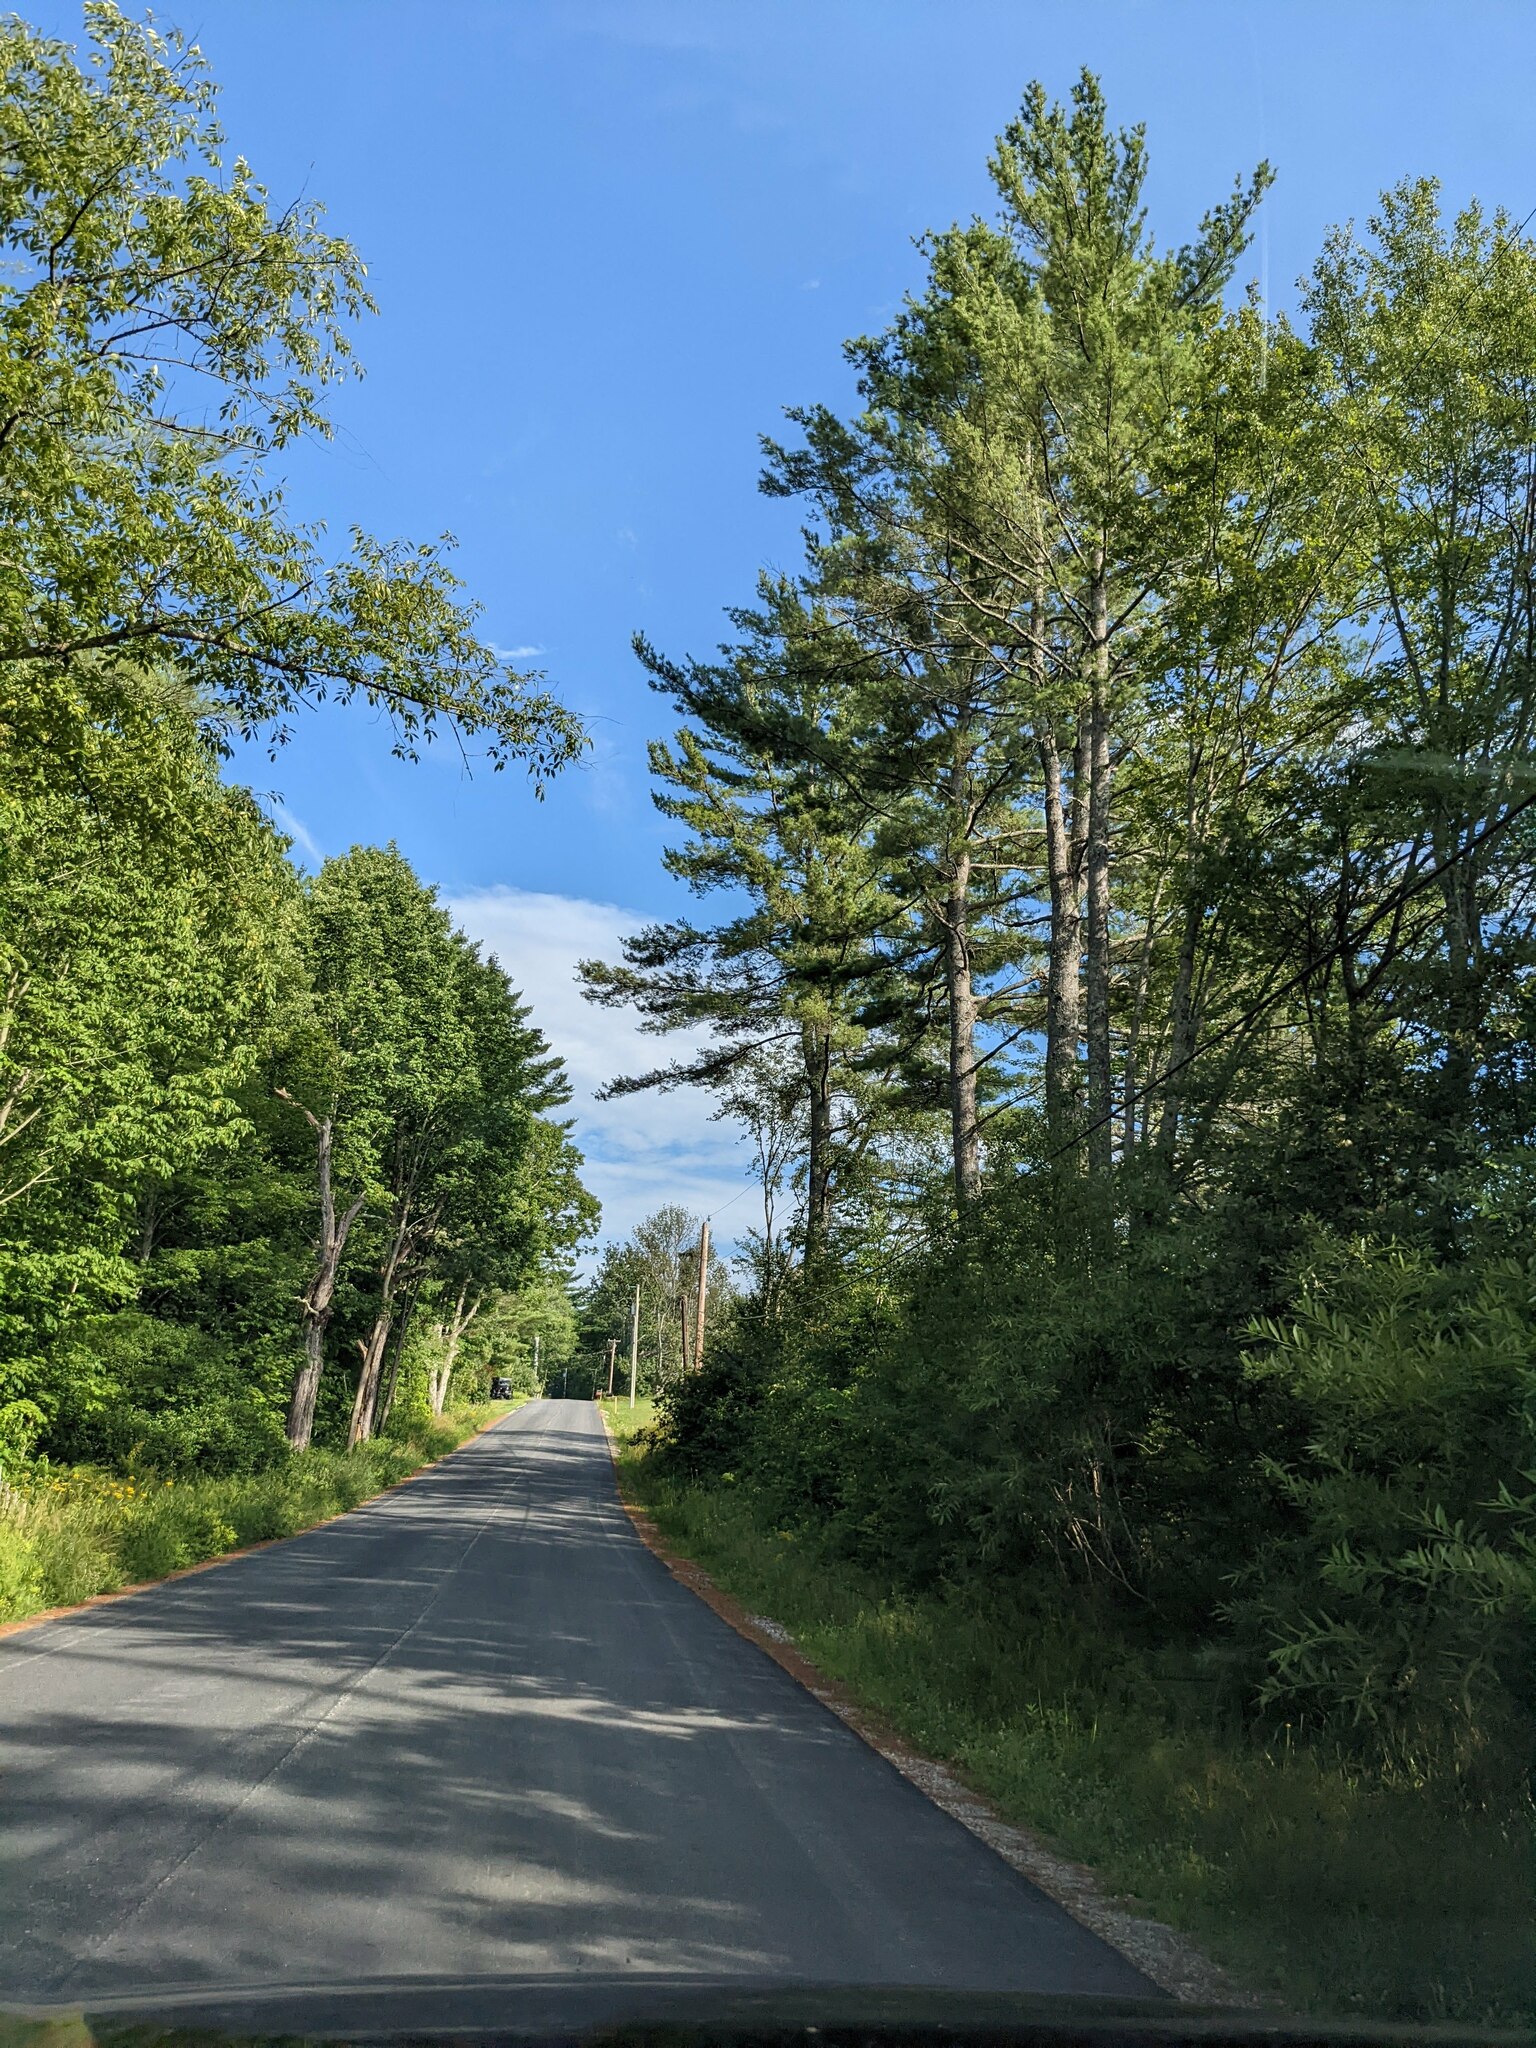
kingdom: Plantae
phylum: Tracheophyta
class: Pinopsida
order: Pinales
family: Pinaceae
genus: Pinus
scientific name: Pinus strobus
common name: Weymouth pine
